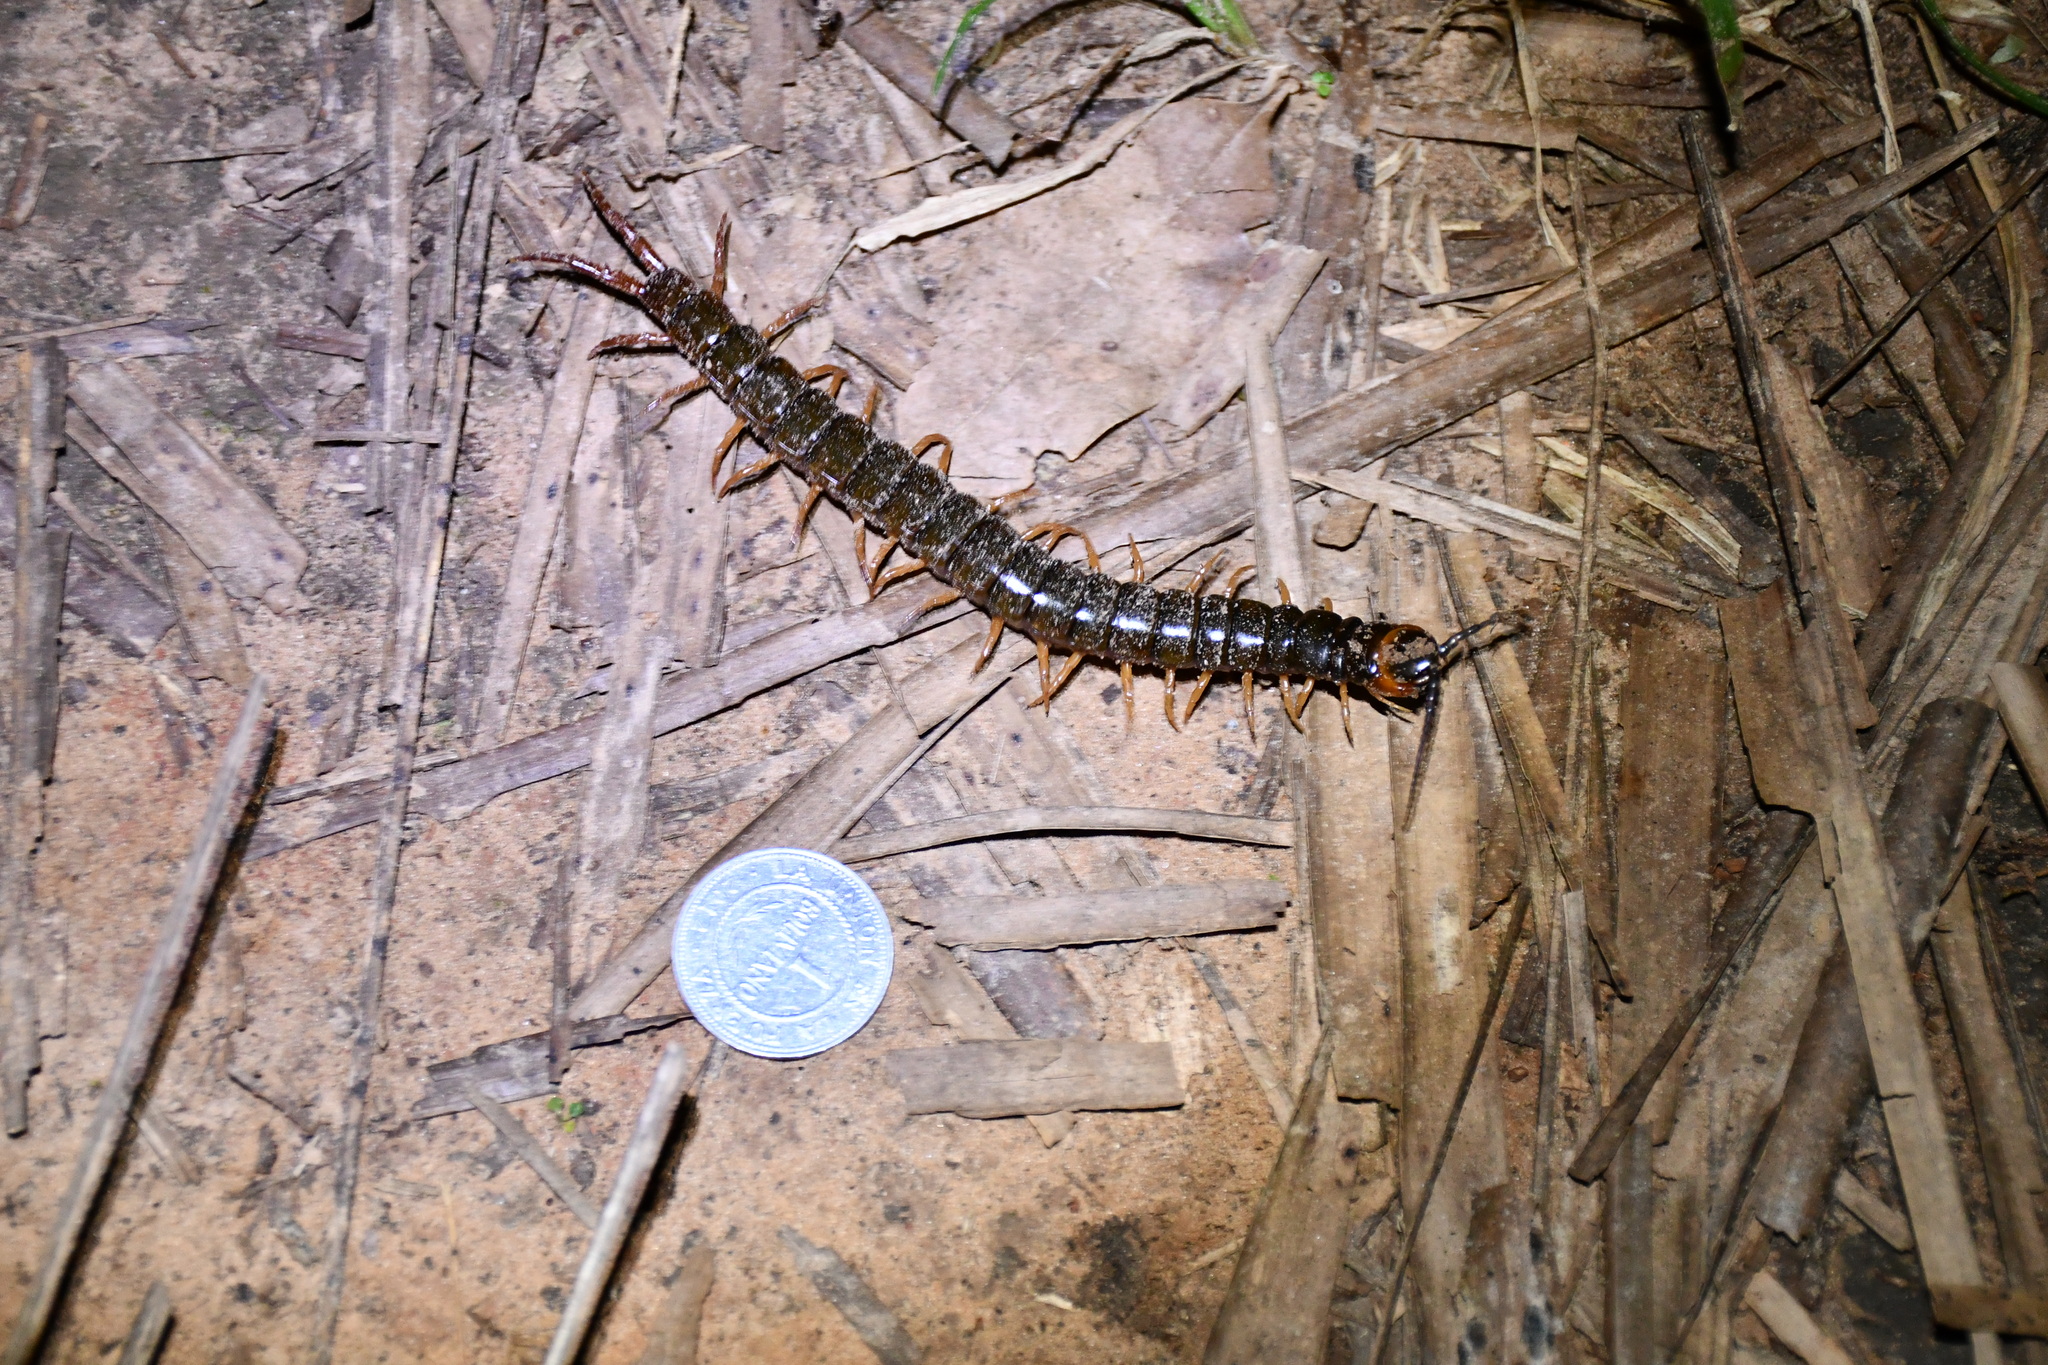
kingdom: Animalia
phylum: Arthropoda
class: Chilopoda
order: Scolopendromorpha
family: Scolopendridae
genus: Scolopendra
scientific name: Scolopendra hermosa
